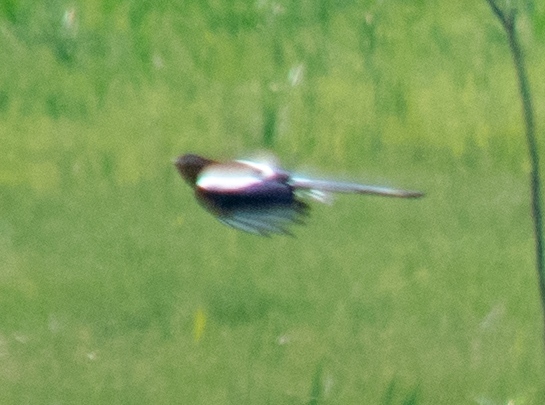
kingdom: Animalia
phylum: Chordata
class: Aves
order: Passeriformes
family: Corvidae
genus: Pica
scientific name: Pica pica
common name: Eurasian magpie
